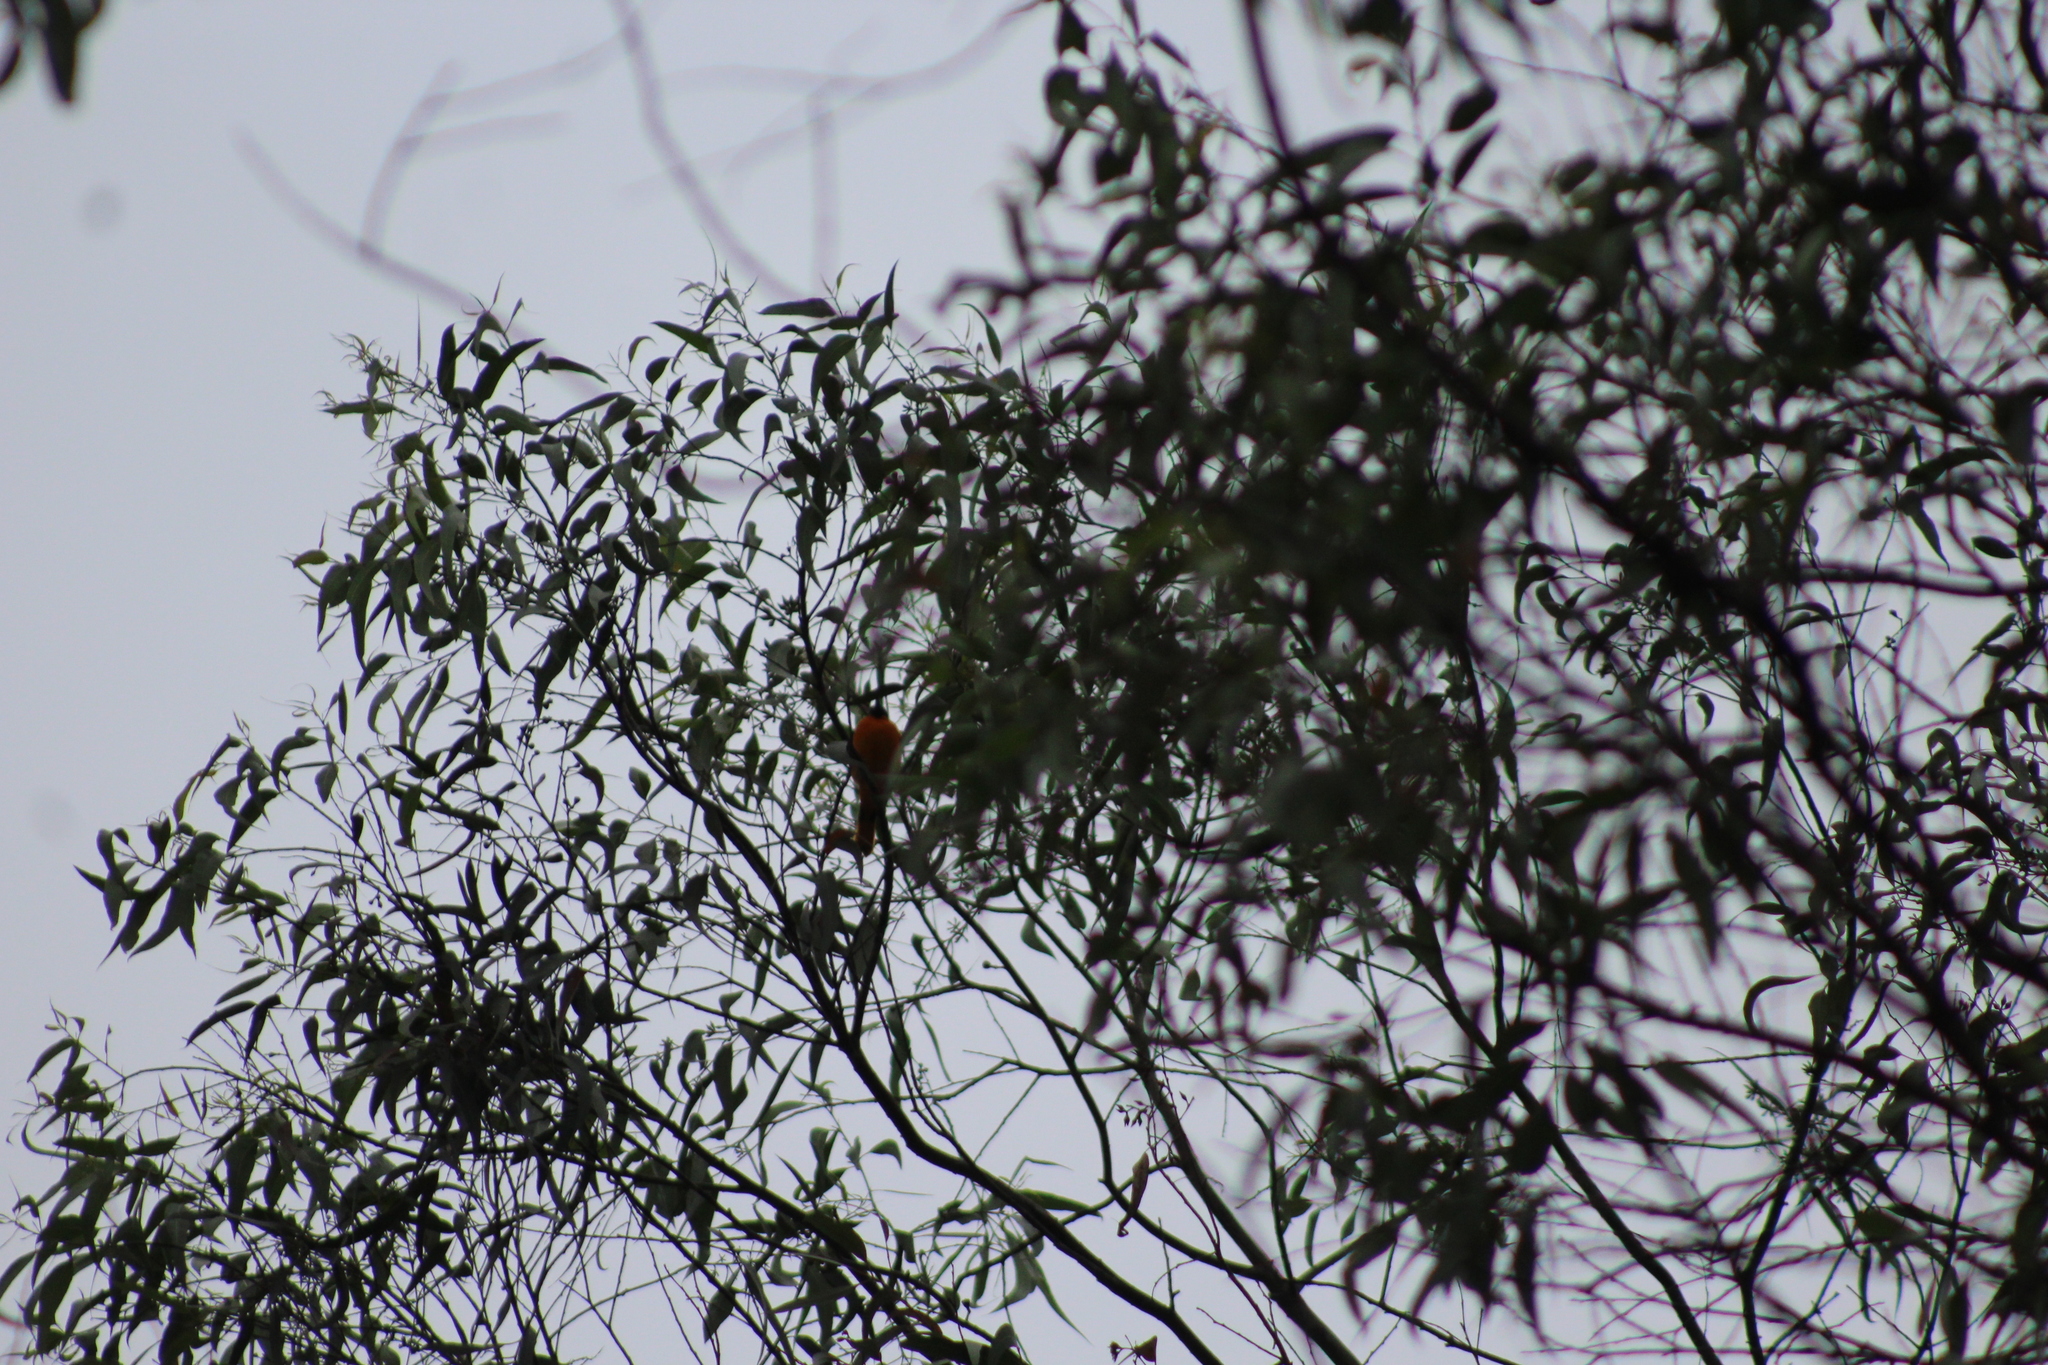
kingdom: Animalia
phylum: Chordata
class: Aves
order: Passeriformes
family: Icteridae
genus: Icterus
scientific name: Icterus galbula
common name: Baltimore oriole
